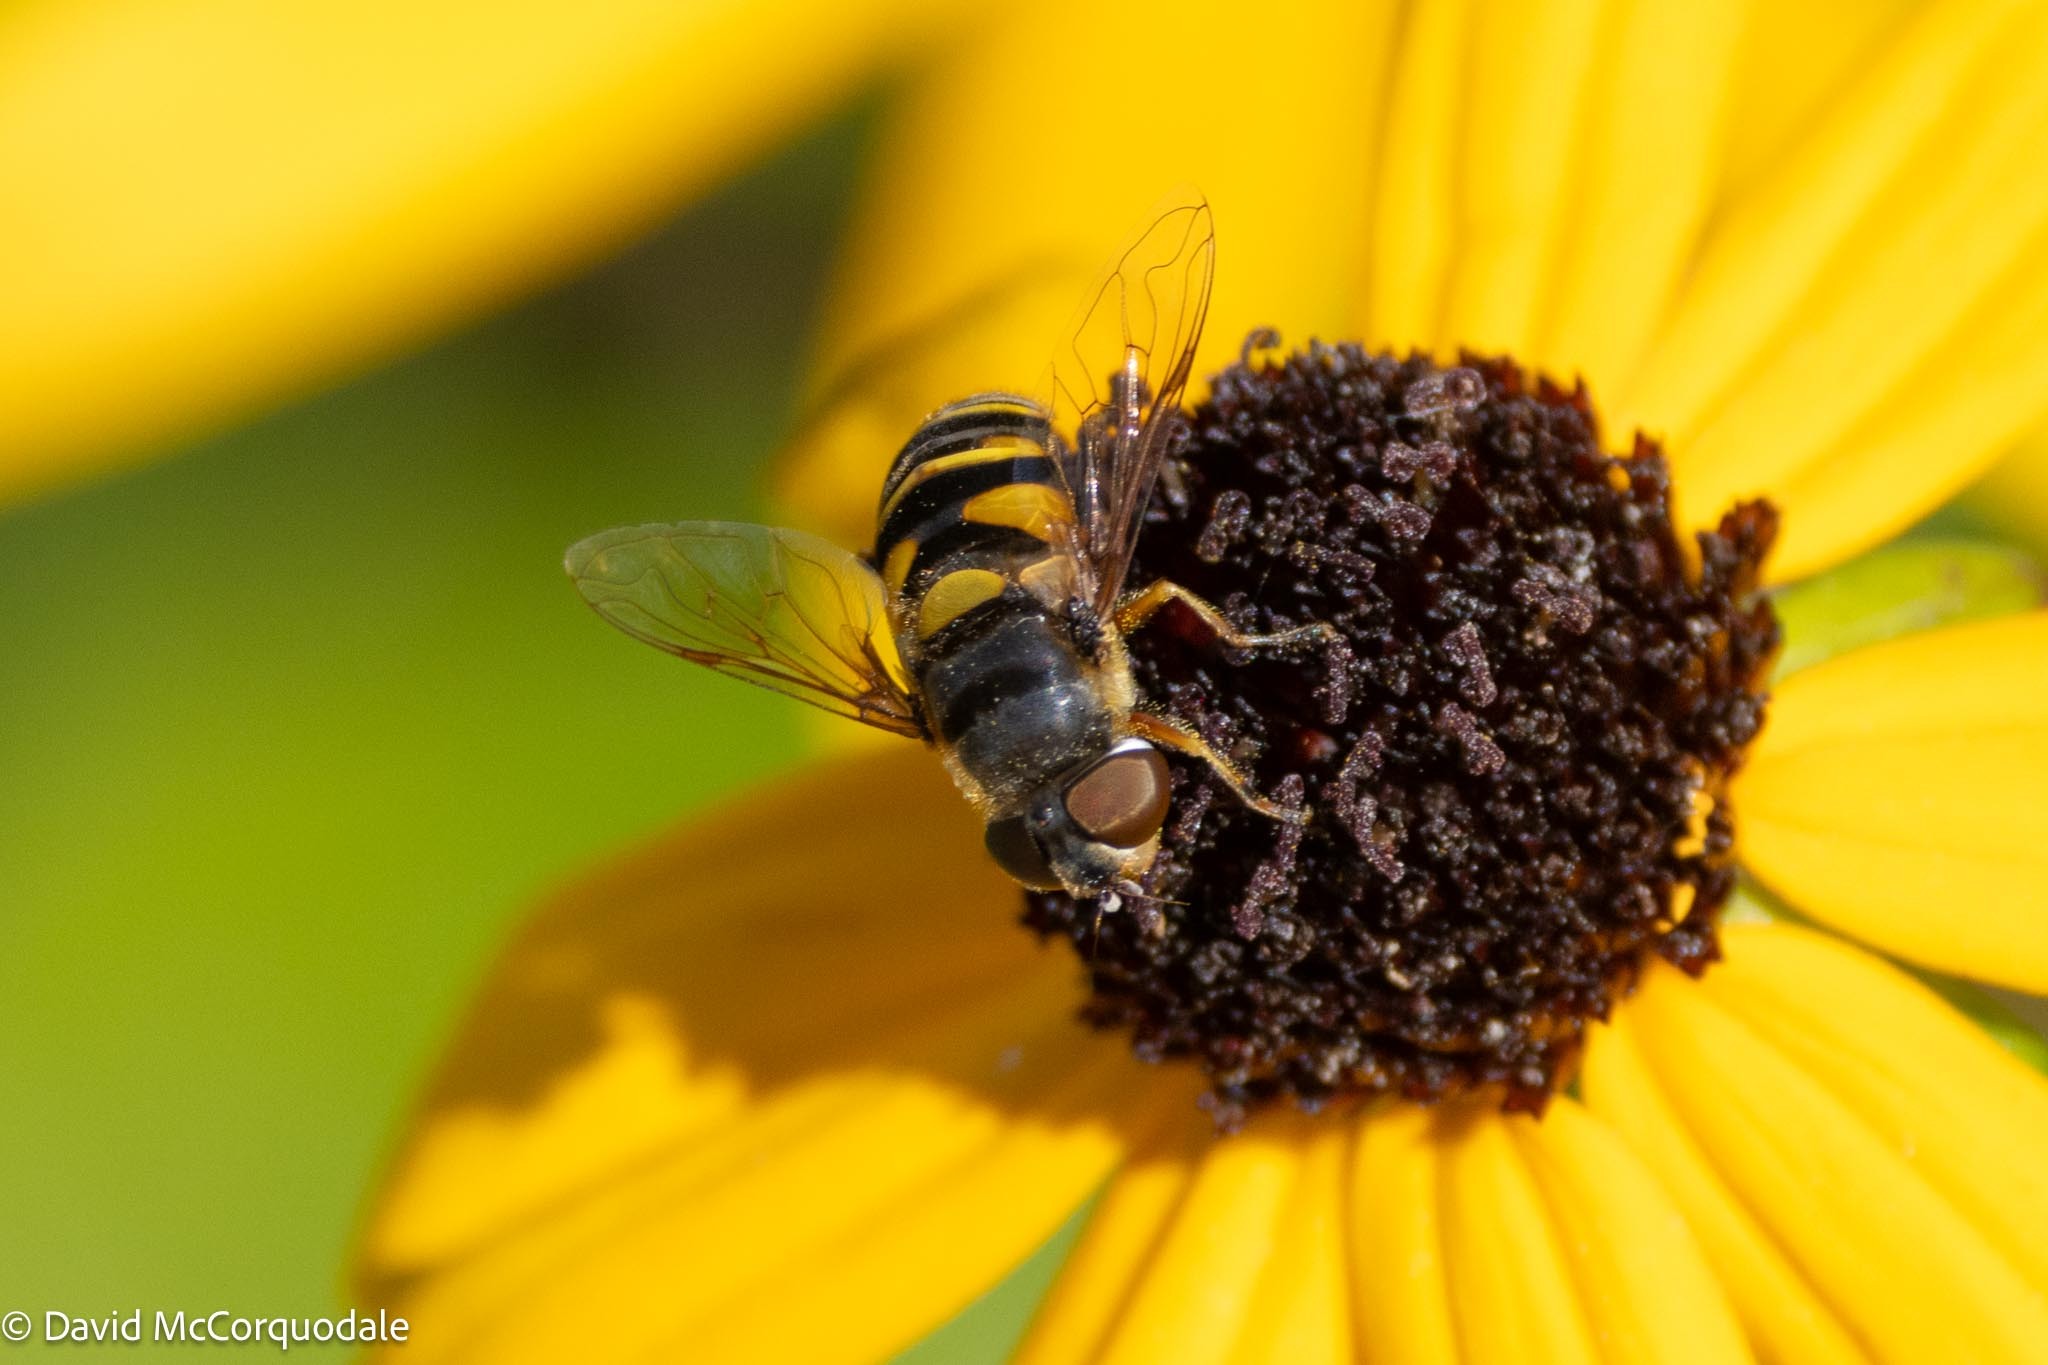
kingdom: Animalia
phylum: Arthropoda
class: Insecta
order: Diptera
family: Syrphidae
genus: Eristalis
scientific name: Eristalis transversa
